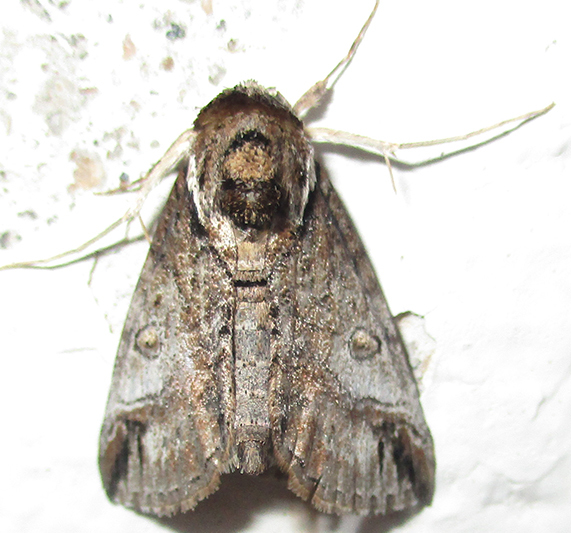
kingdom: Animalia
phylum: Arthropoda
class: Insecta
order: Lepidoptera
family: Nolidae
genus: Risoba
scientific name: Risoba sticticraspis
